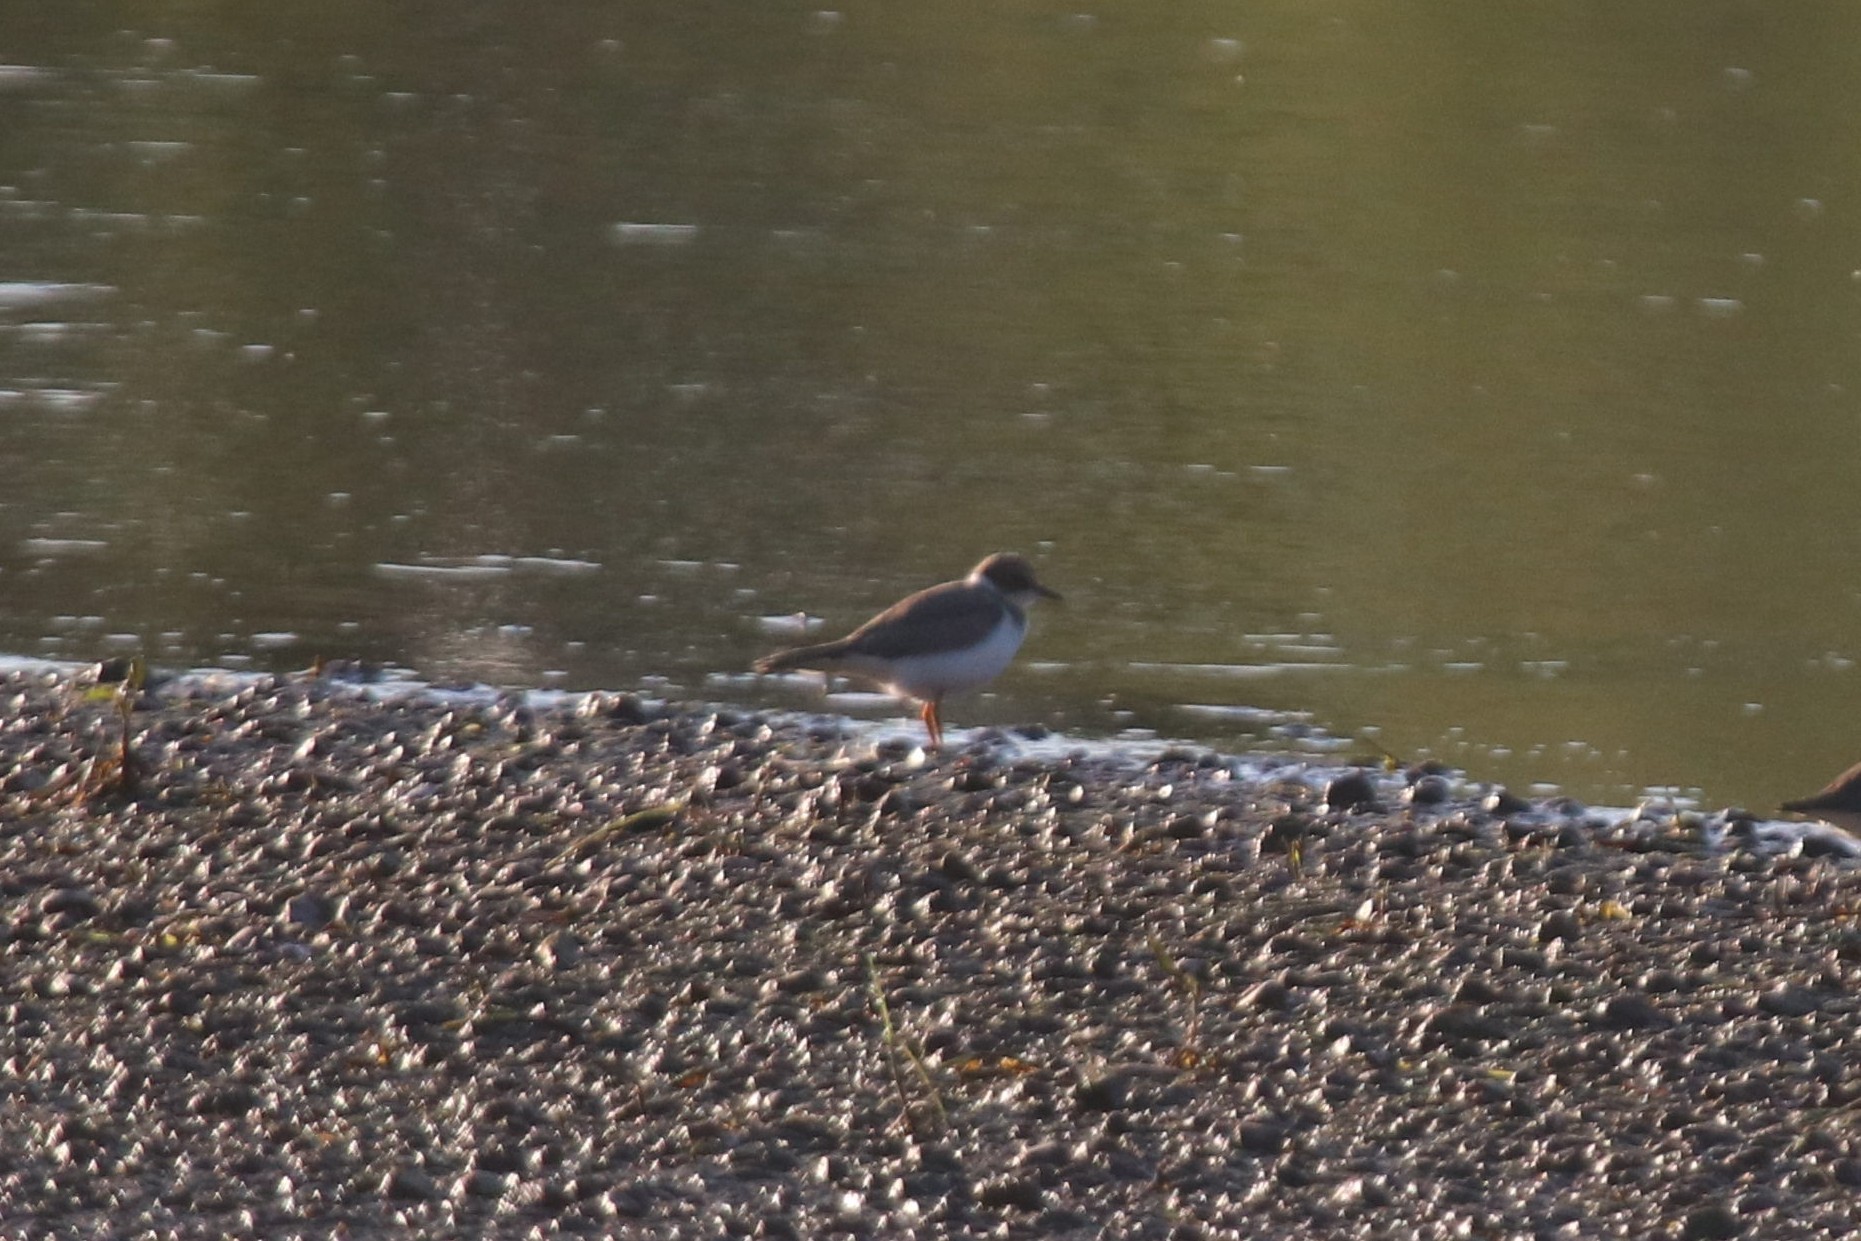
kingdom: Animalia
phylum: Chordata
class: Aves
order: Charadriiformes
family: Charadriidae
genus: Charadrius
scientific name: Charadrius dubius
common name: Little ringed plover
